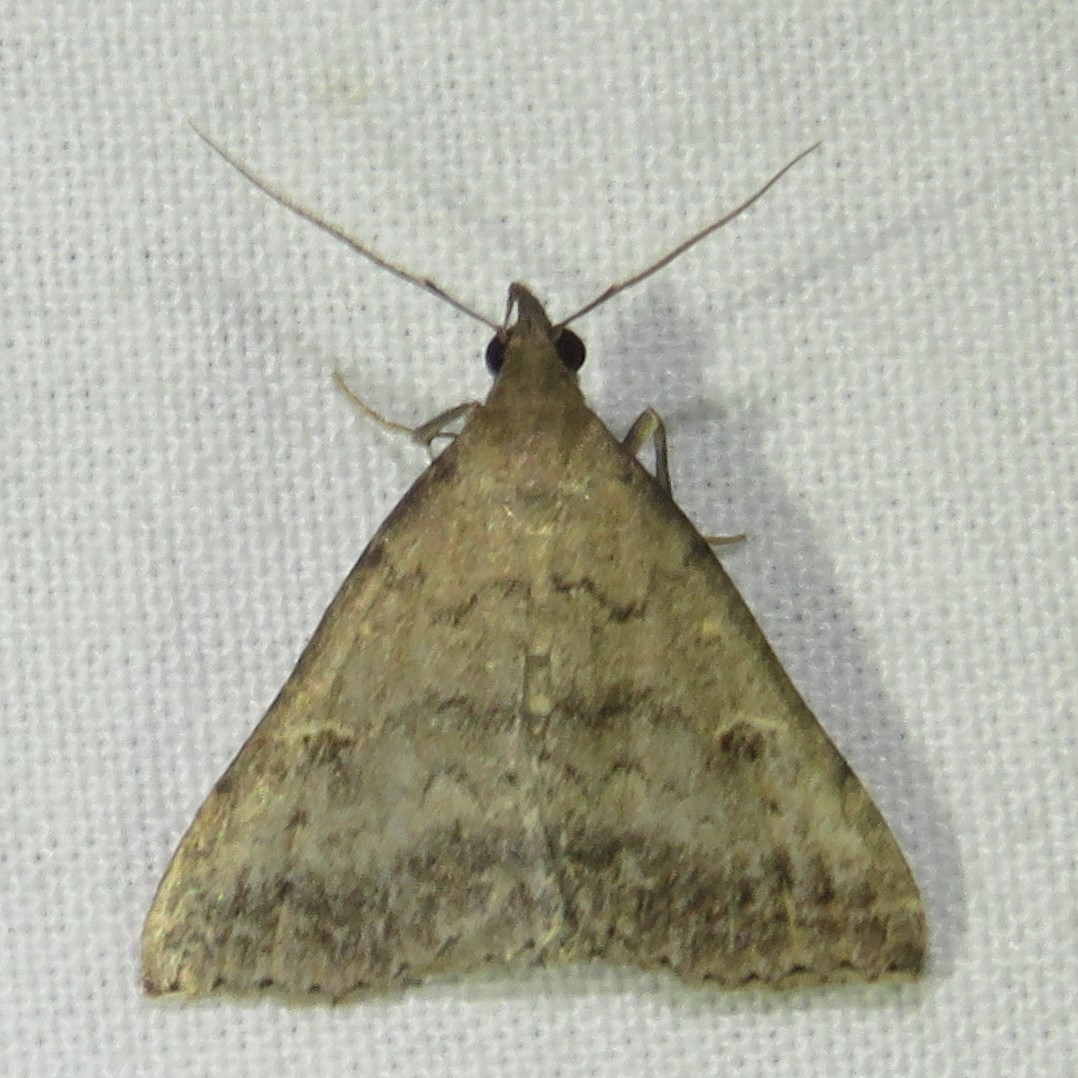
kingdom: Animalia
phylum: Arthropoda
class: Insecta
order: Lepidoptera
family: Erebidae
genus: Tetanolita
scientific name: Tetanolita floridana
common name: Florida tetanolita moth
